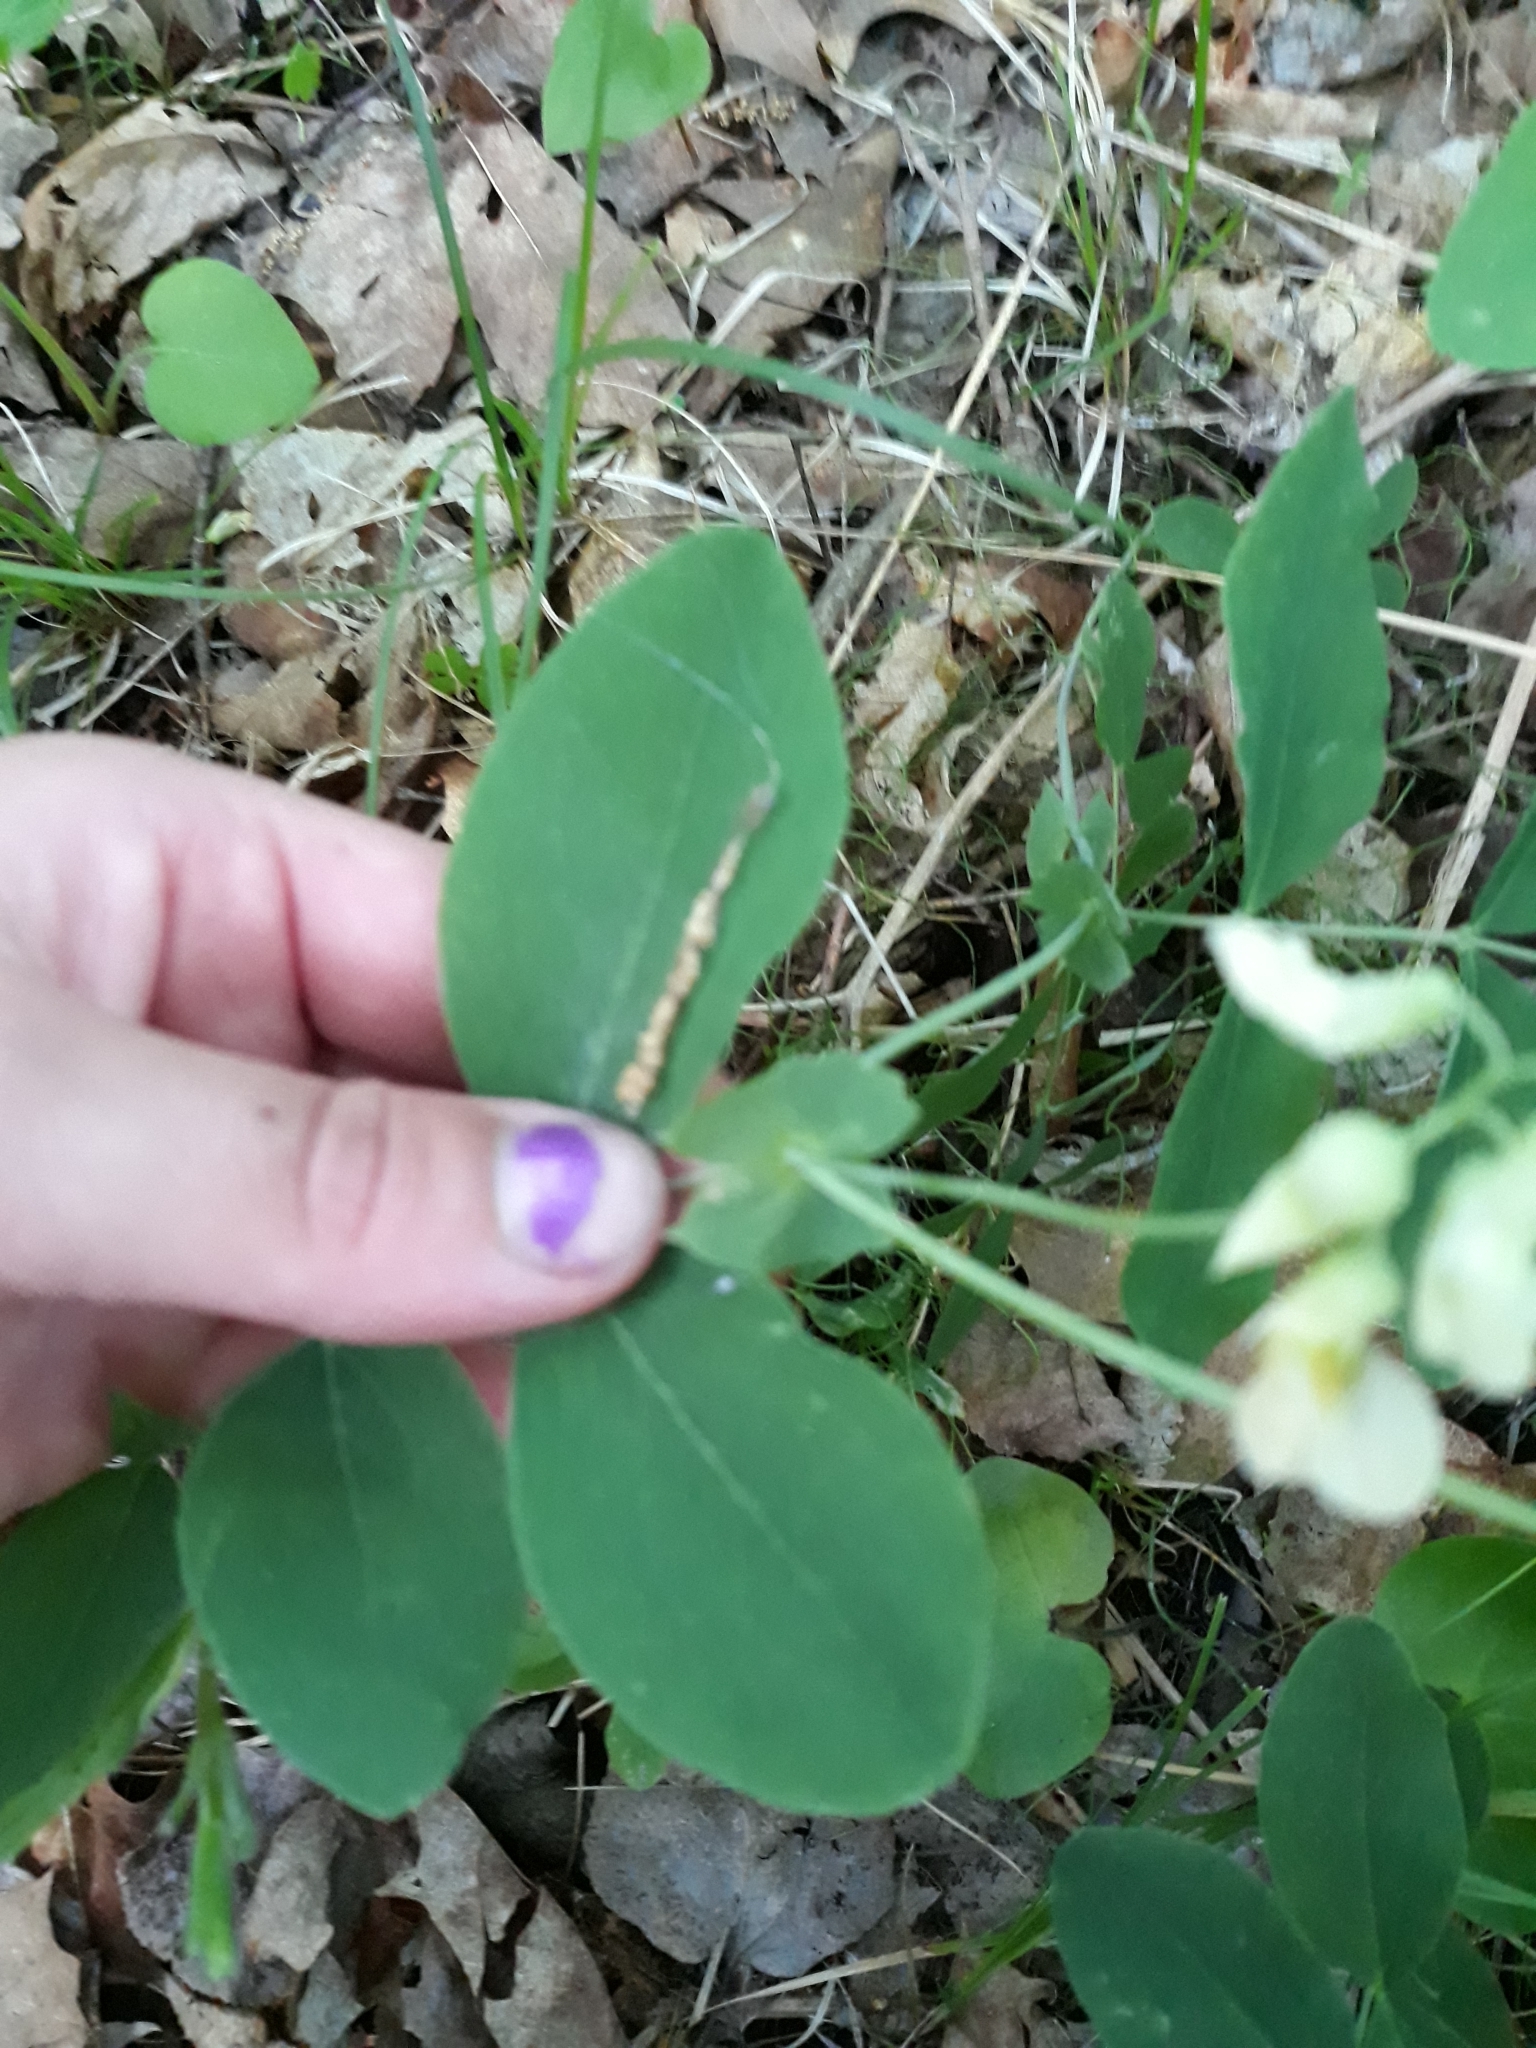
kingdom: Plantae
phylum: Tracheophyta
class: Magnoliopsida
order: Fabales
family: Fabaceae
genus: Lathyrus
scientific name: Lathyrus ochroleucus
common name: Pale vetchling
